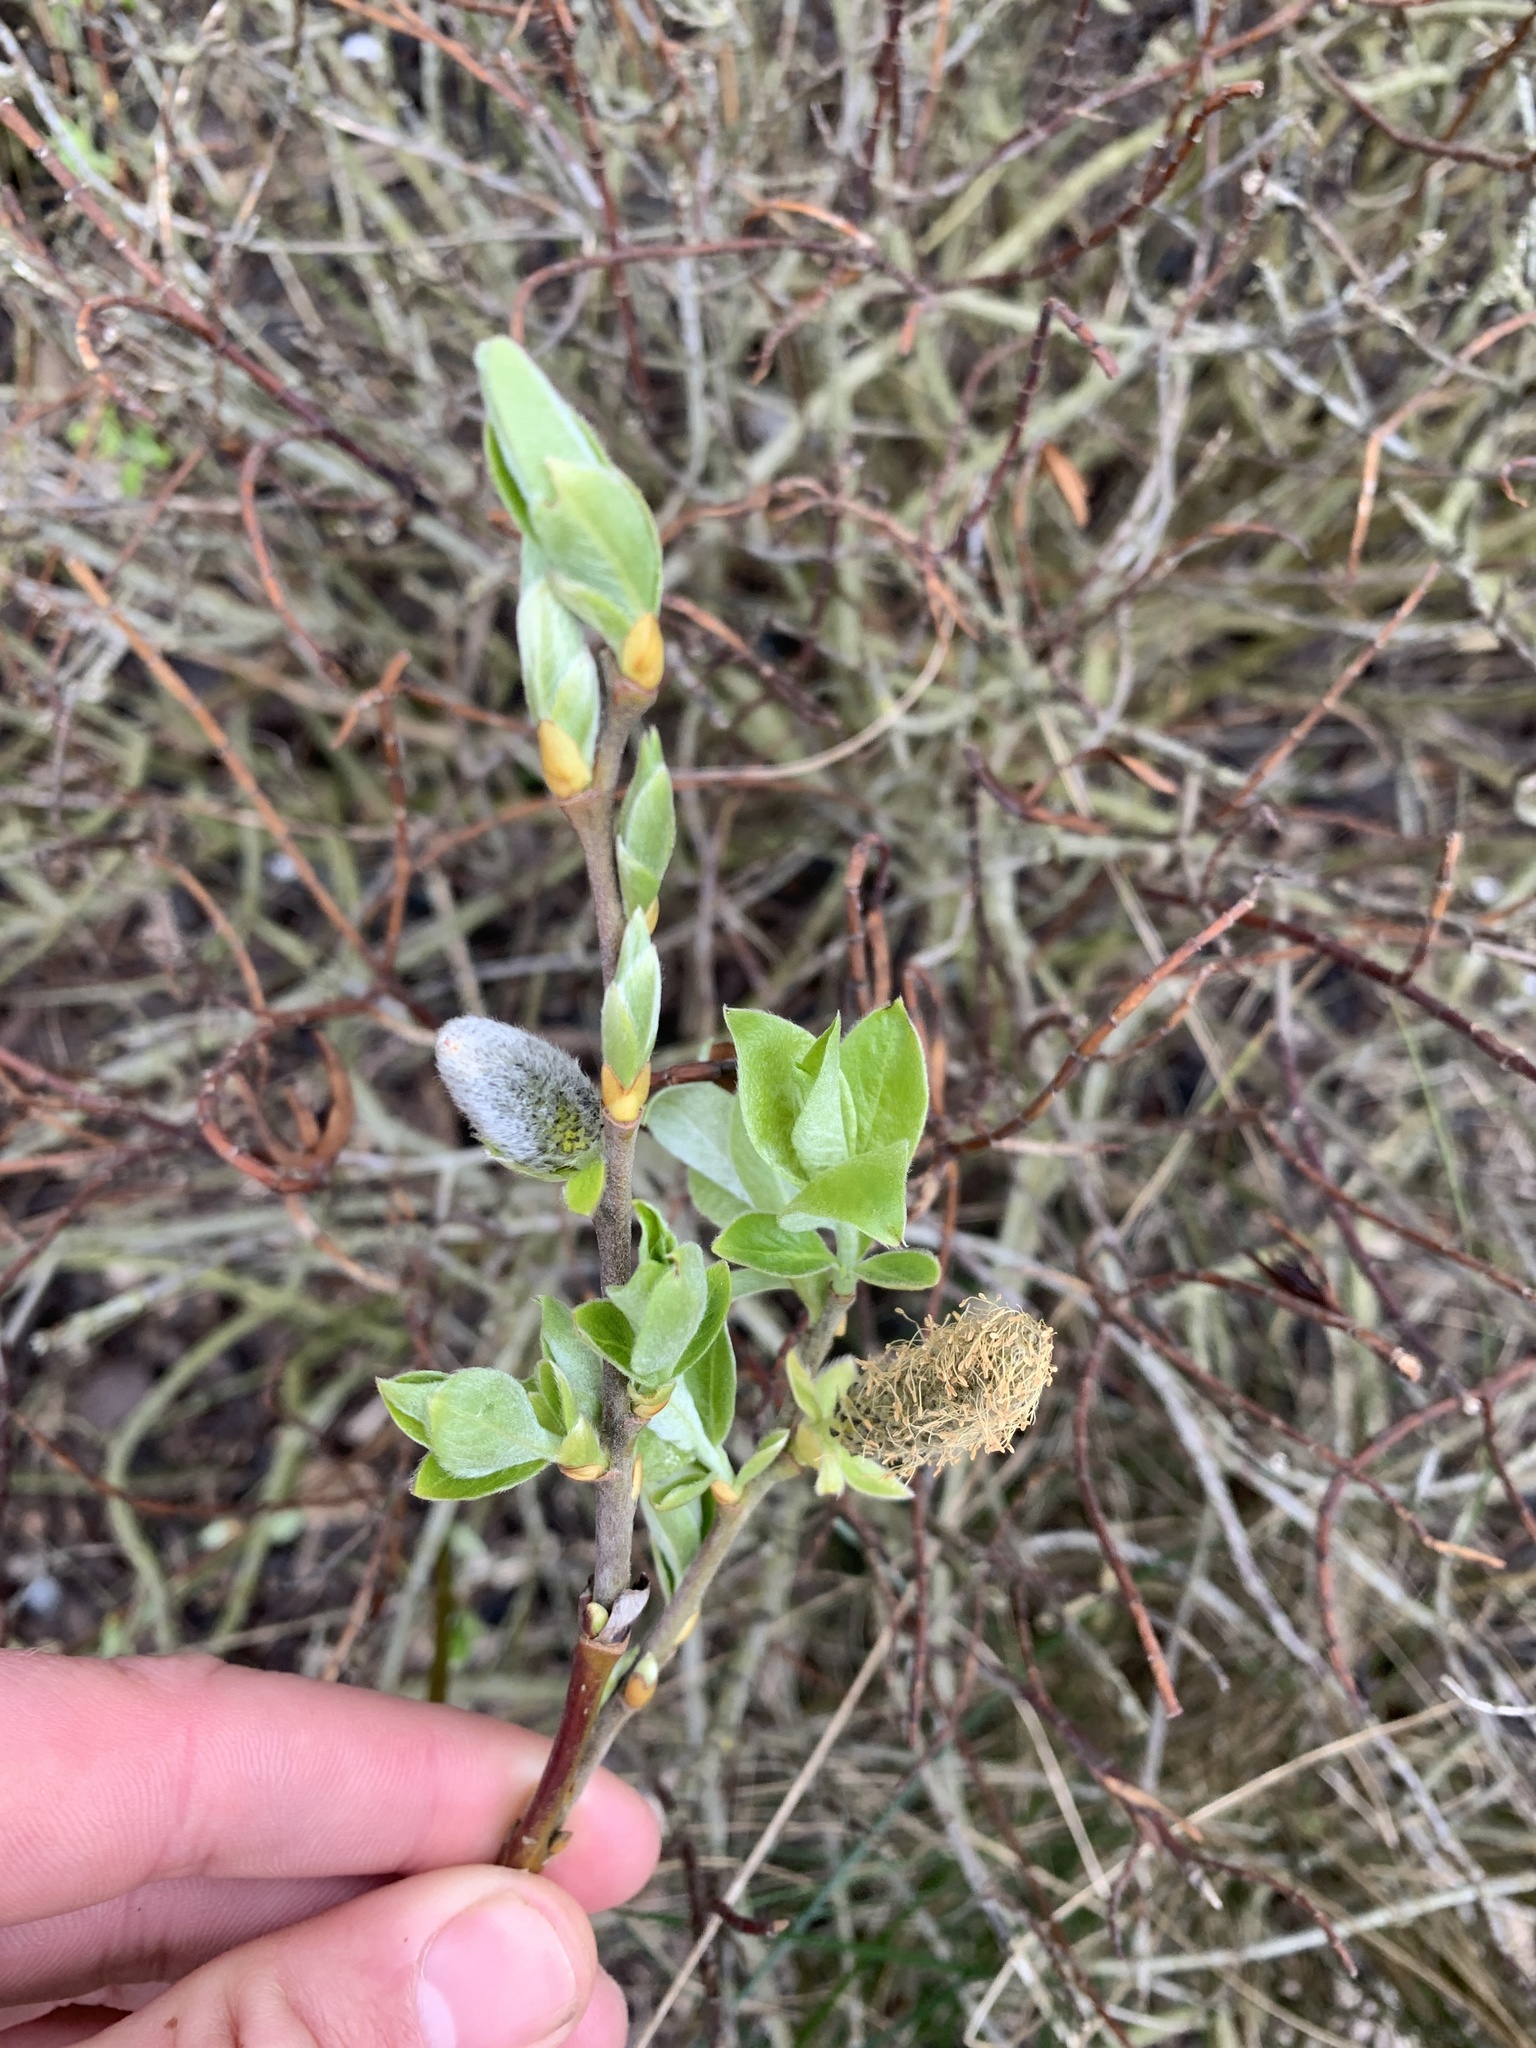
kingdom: Plantae
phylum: Tracheophyta
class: Magnoliopsida
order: Malpighiales
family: Salicaceae
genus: Salix
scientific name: Salix caprea
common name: Goat willow
